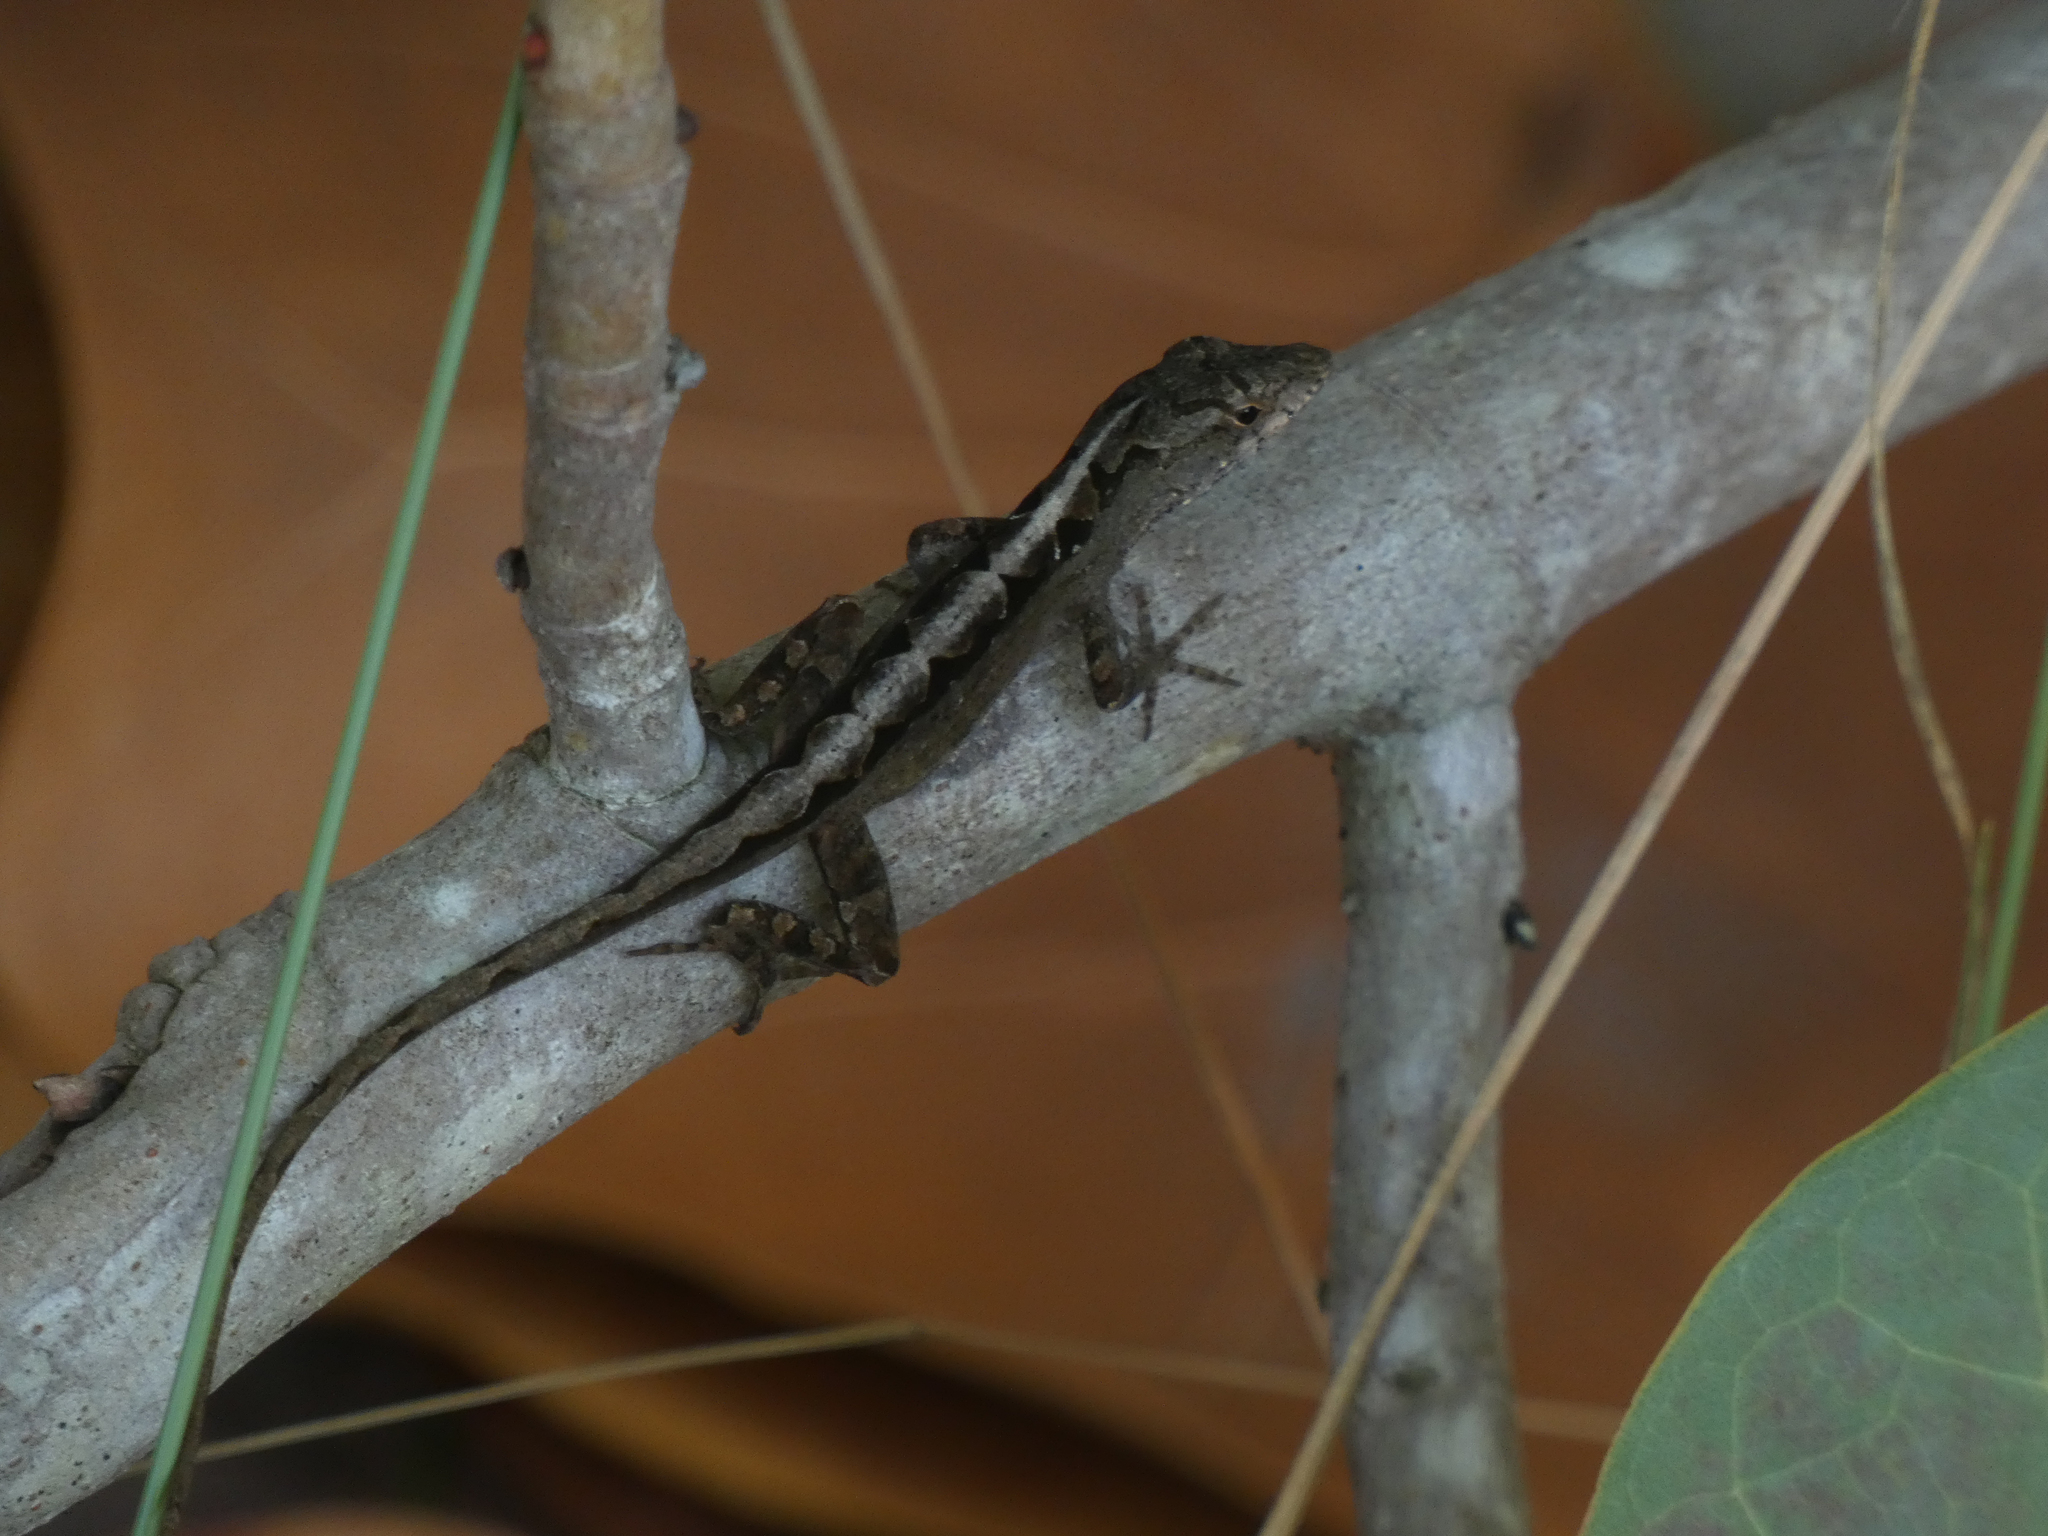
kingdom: Animalia
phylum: Chordata
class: Squamata
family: Dactyloidae
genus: Anolis
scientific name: Anolis sagrei
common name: Brown anole
